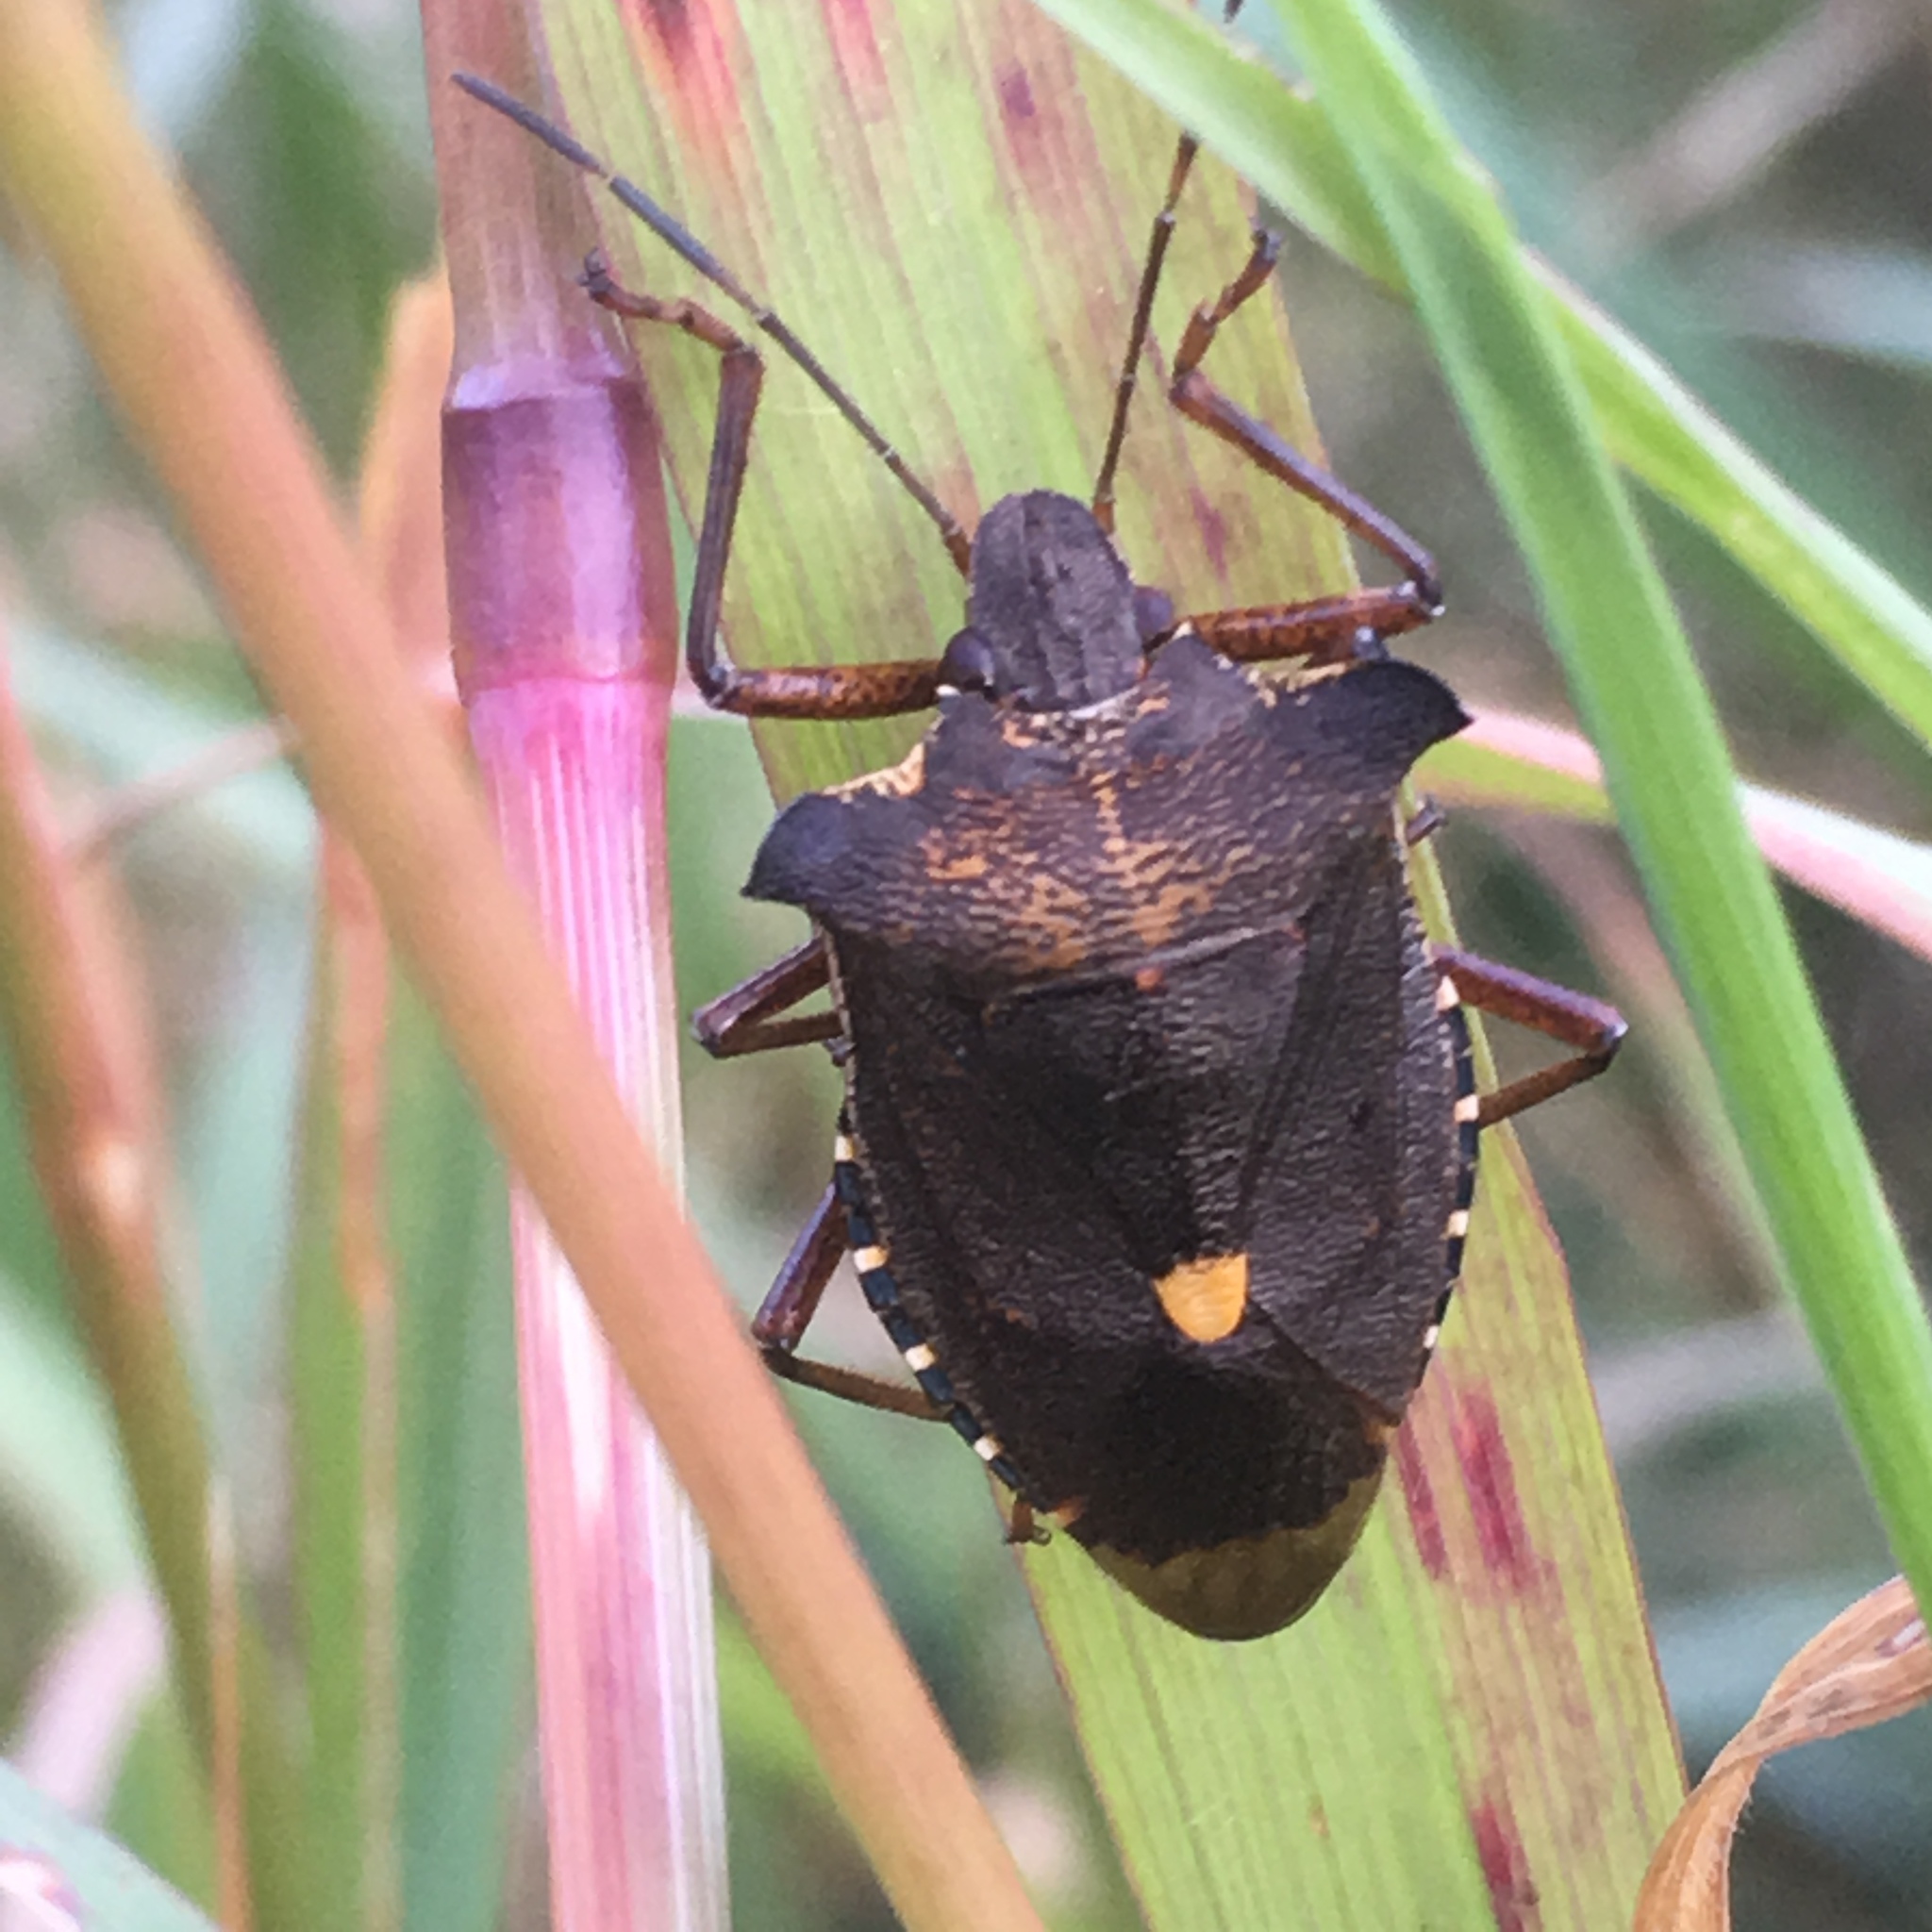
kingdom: Animalia
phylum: Arthropoda
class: Insecta
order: Hemiptera
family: Pentatomidae
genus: Pentatoma
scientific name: Pentatoma rufipes
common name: Forest bug
